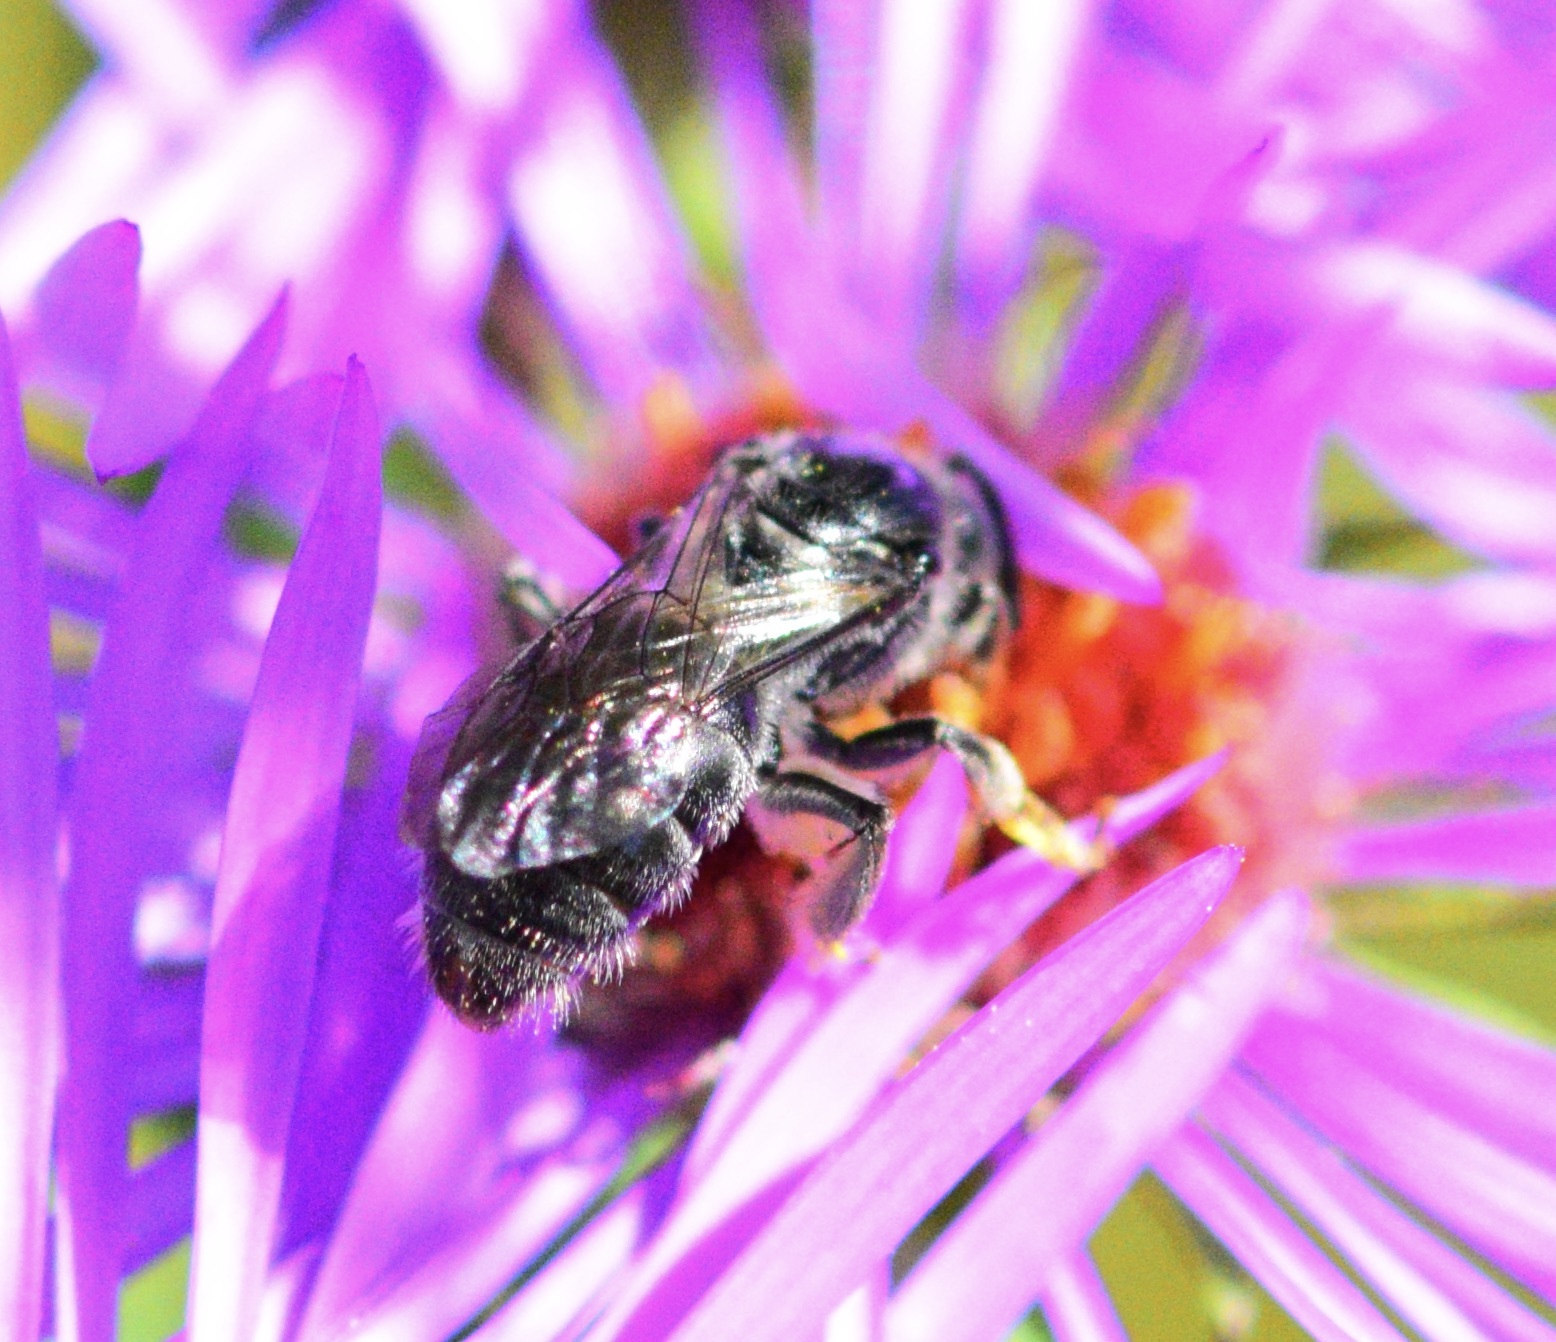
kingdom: Animalia
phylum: Arthropoda
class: Insecta
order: Hymenoptera
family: Halictidae
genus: Lasioglossum
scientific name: Lasioglossum pectinatum
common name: Ground cherry sweat bee
